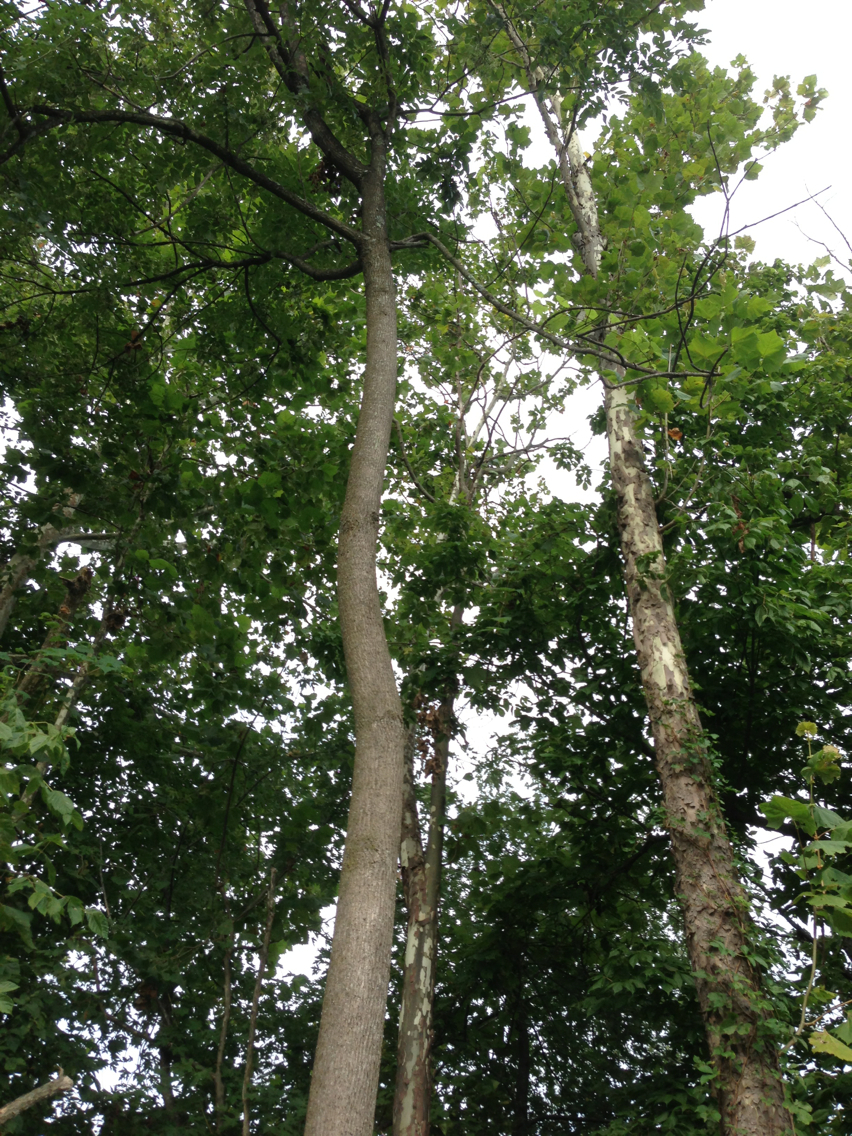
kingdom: Plantae
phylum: Tracheophyta
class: Magnoliopsida
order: Lamiales
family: Oleaceae
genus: Fraxinus
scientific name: Fraxinus americana
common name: White ash
